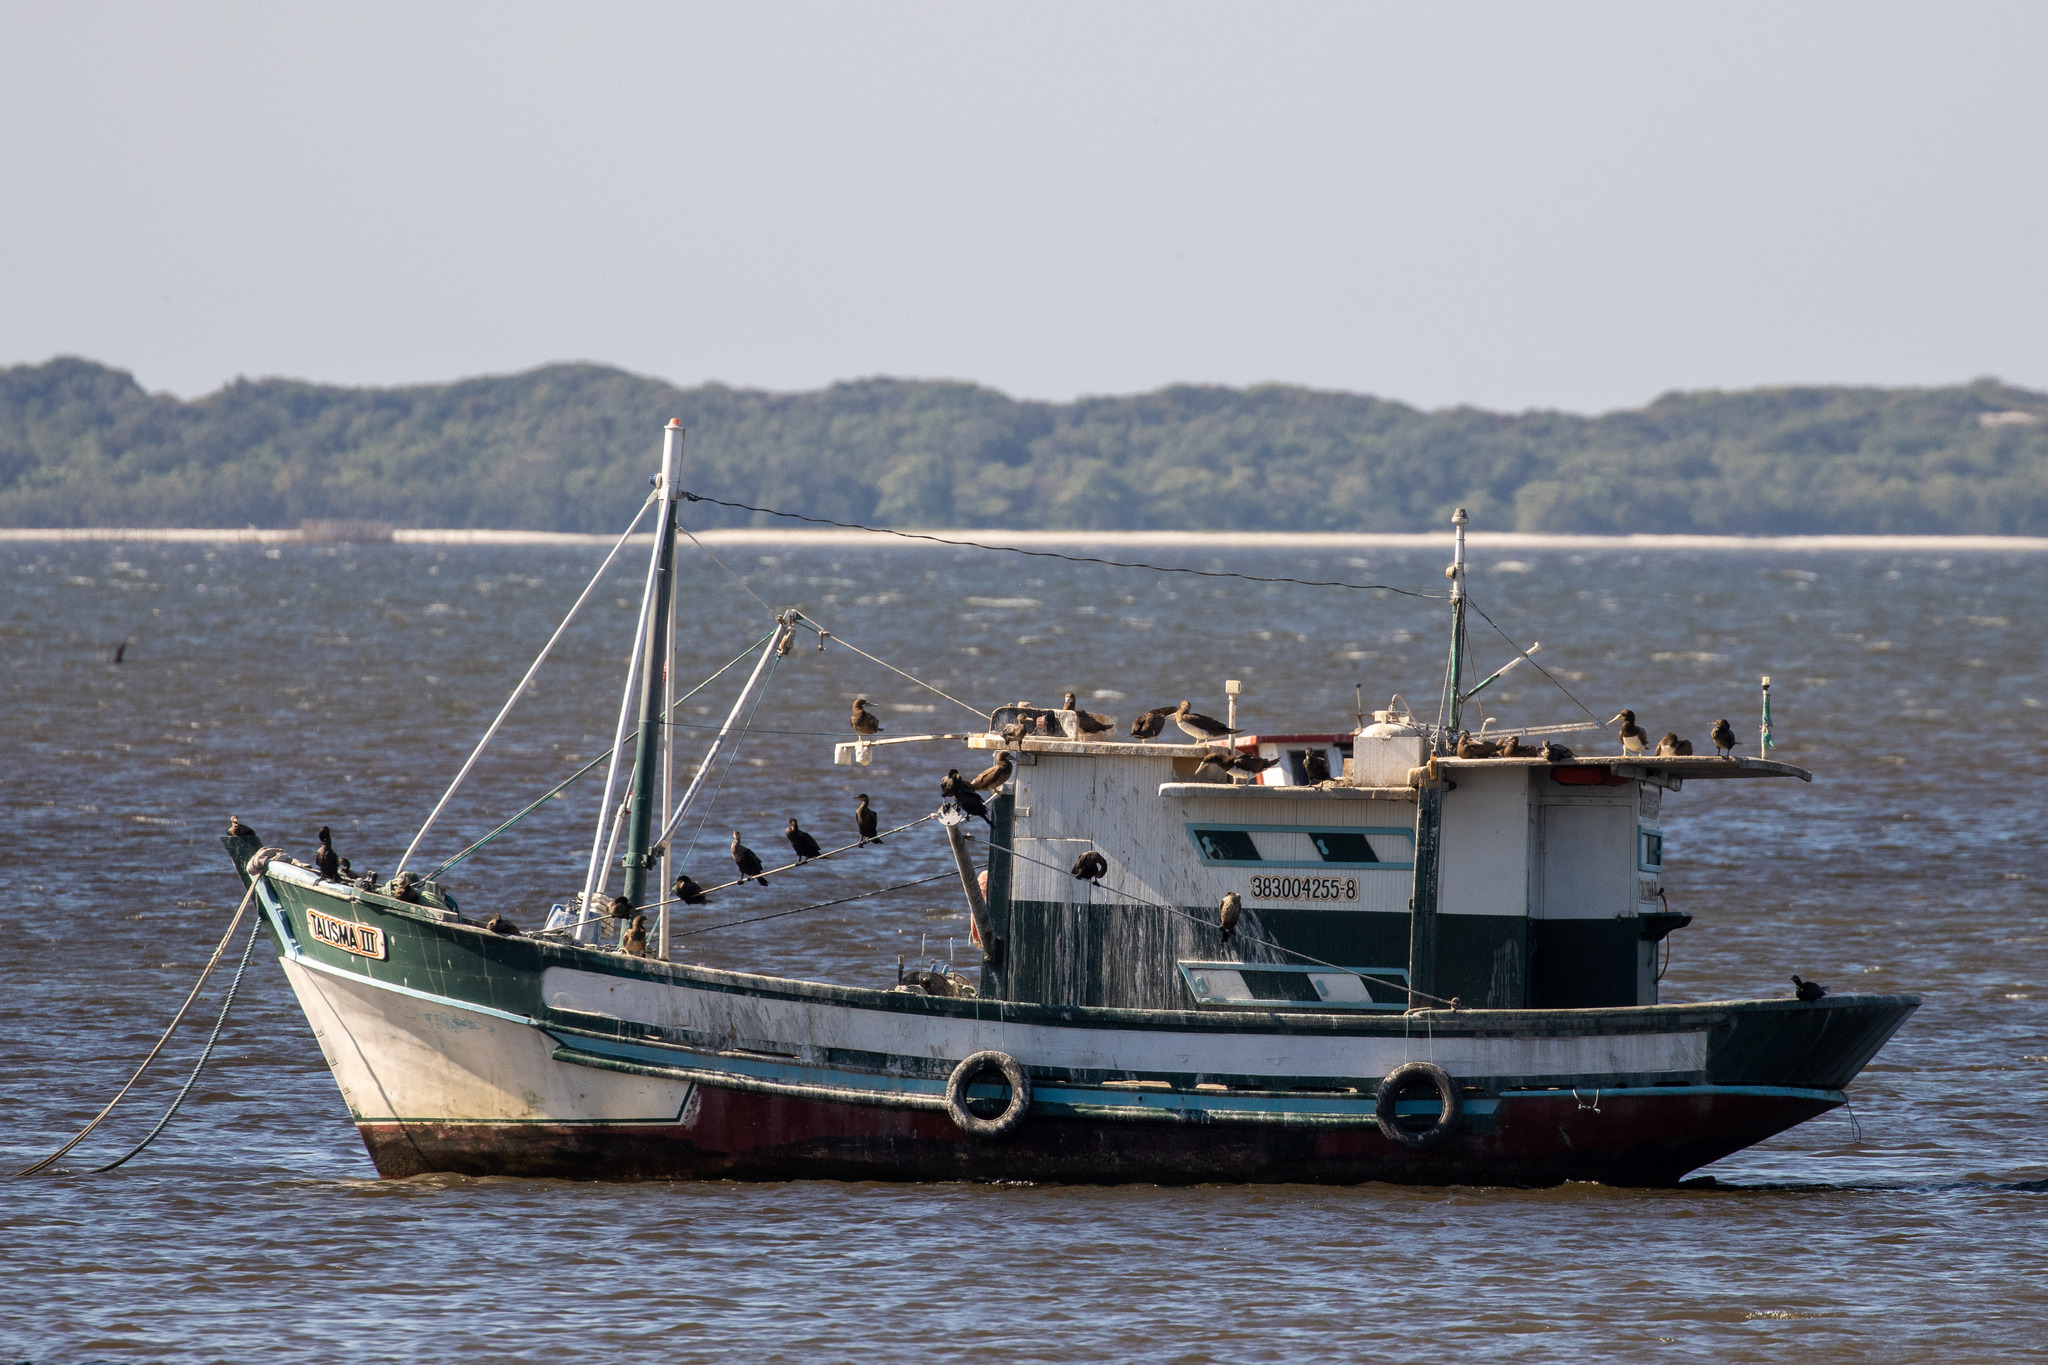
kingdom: Animalia
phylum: Chordata
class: Aves
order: Suliformes
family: Sulidae
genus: Sula
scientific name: Sula leucogaster
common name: Brown booby
